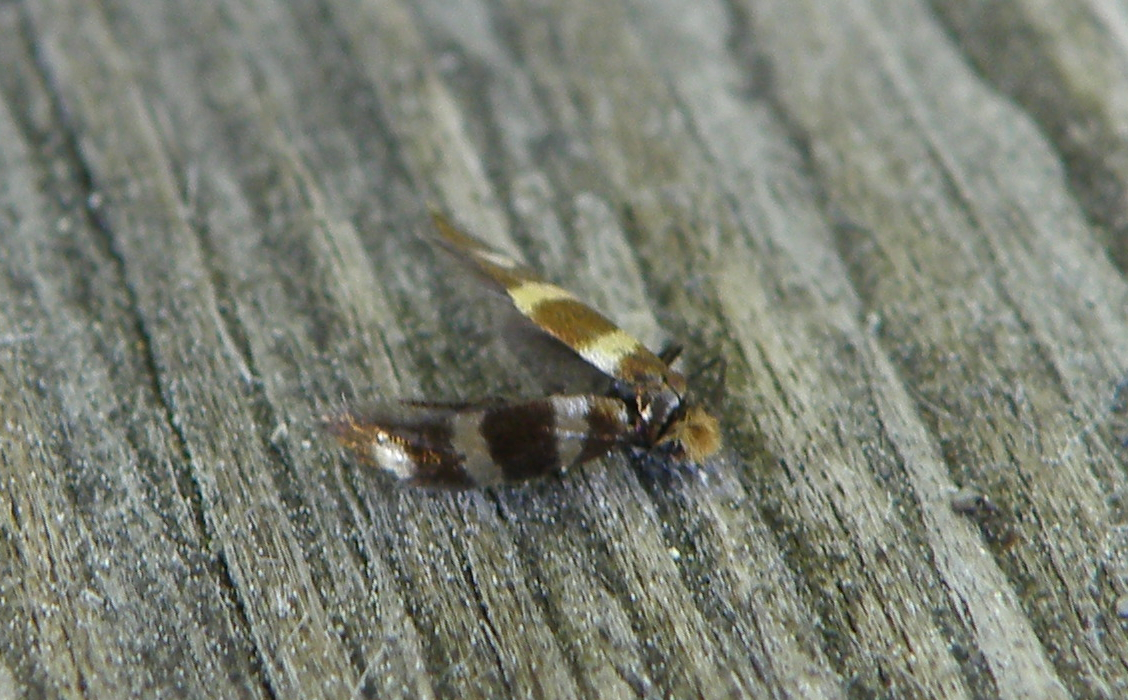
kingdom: Animalia
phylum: Arthropoda
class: Insecta
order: Lepidoptera
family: Micropterigidae
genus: Micropterix
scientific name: Micropterix aureatella
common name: Yellow-barred gold
